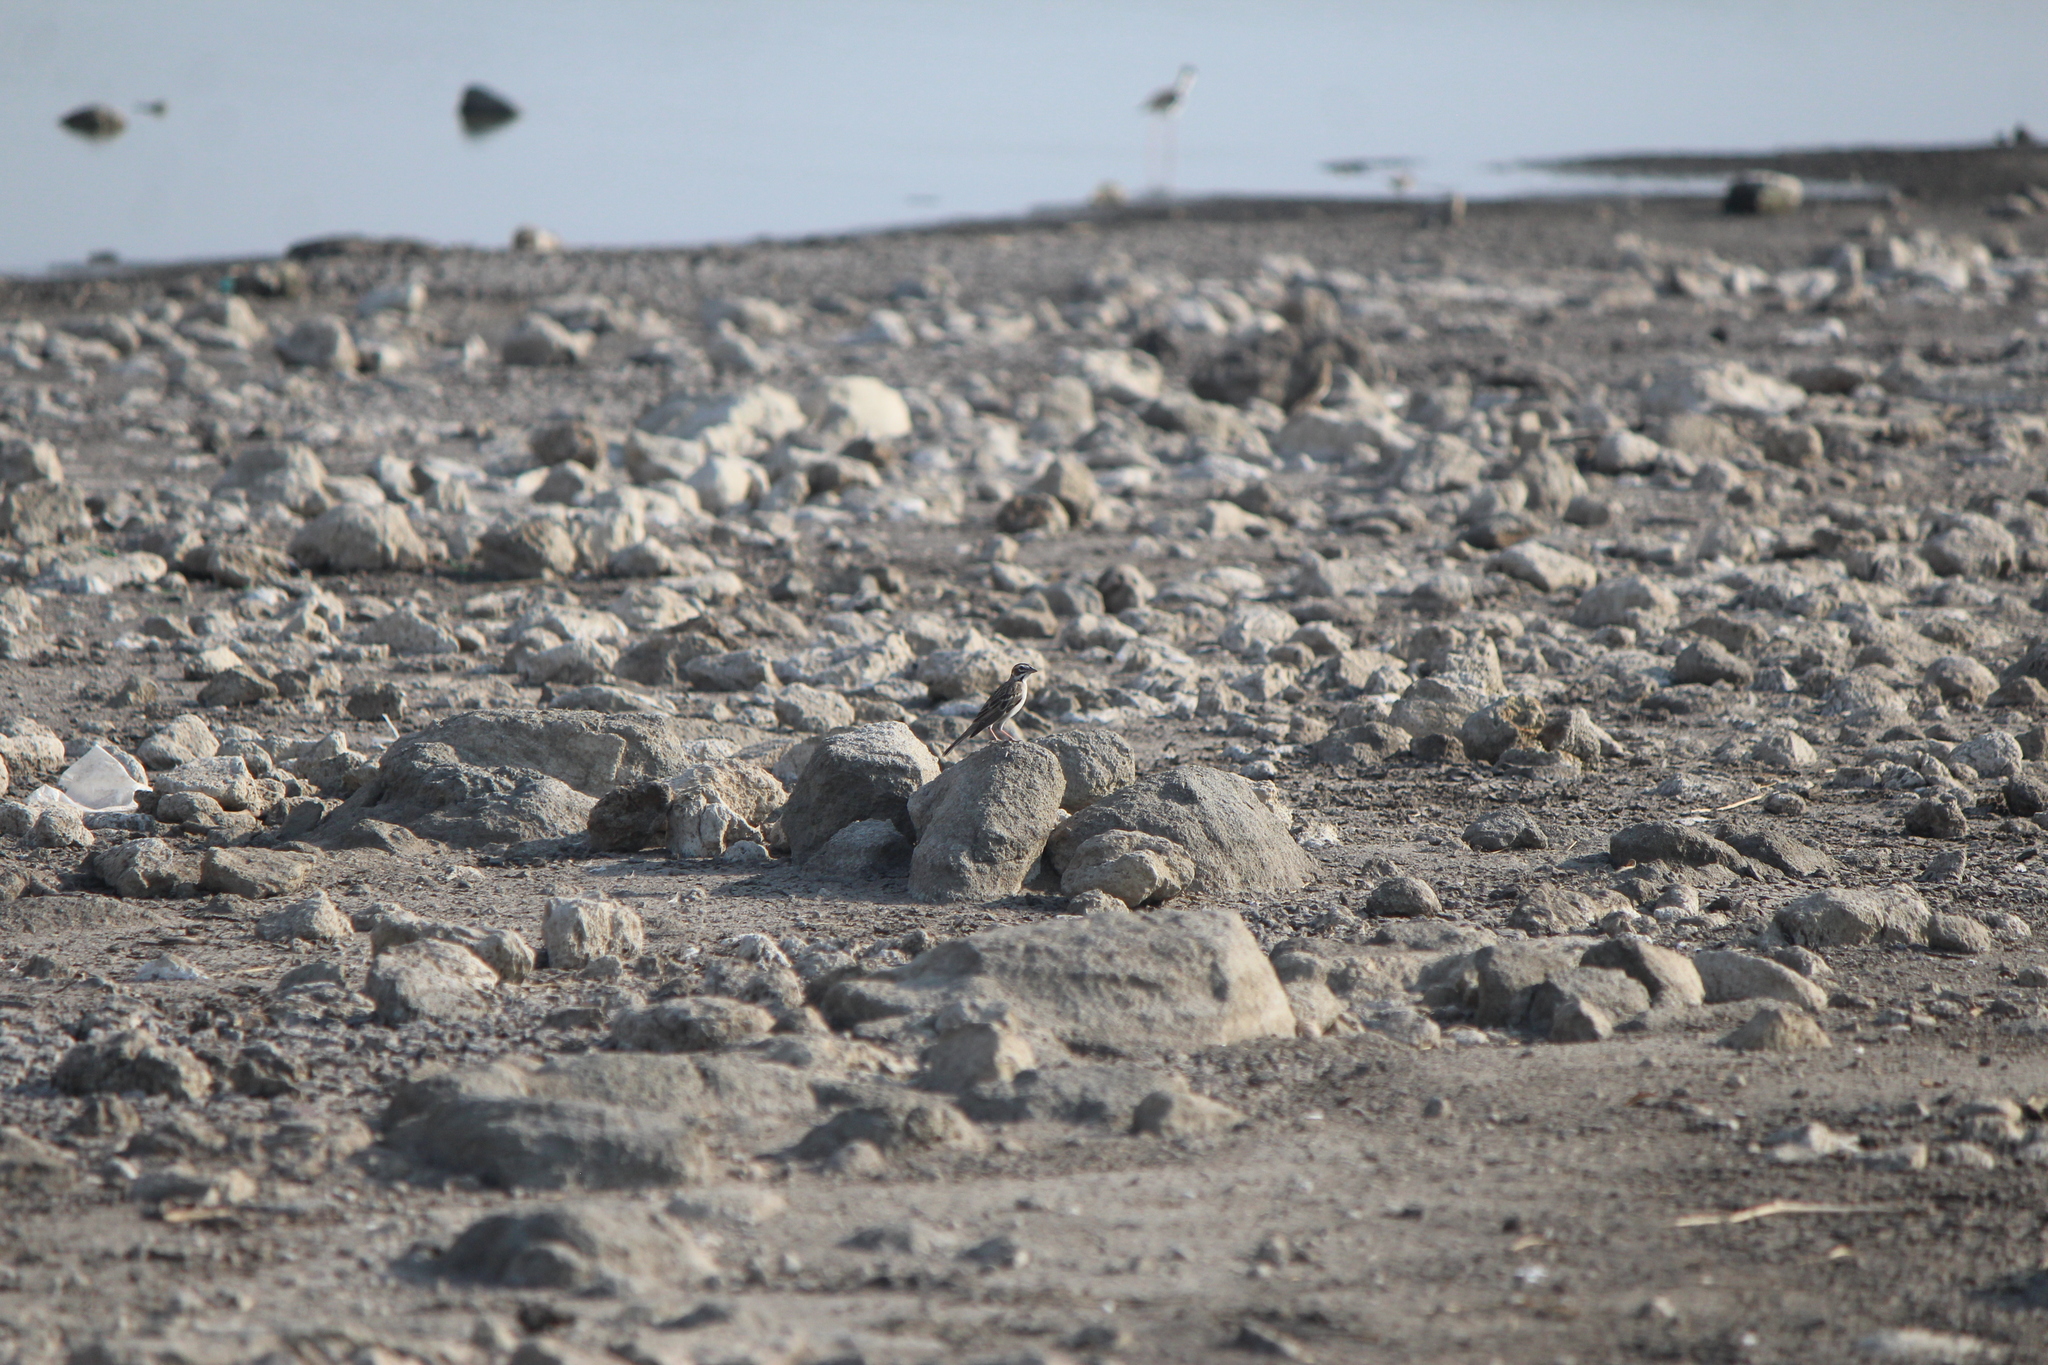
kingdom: Animalia
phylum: Chordata
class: Aves
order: Passeriformes
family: Passerellidae
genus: Chondestes
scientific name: Chondestes grammacus
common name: Lark sparrow
